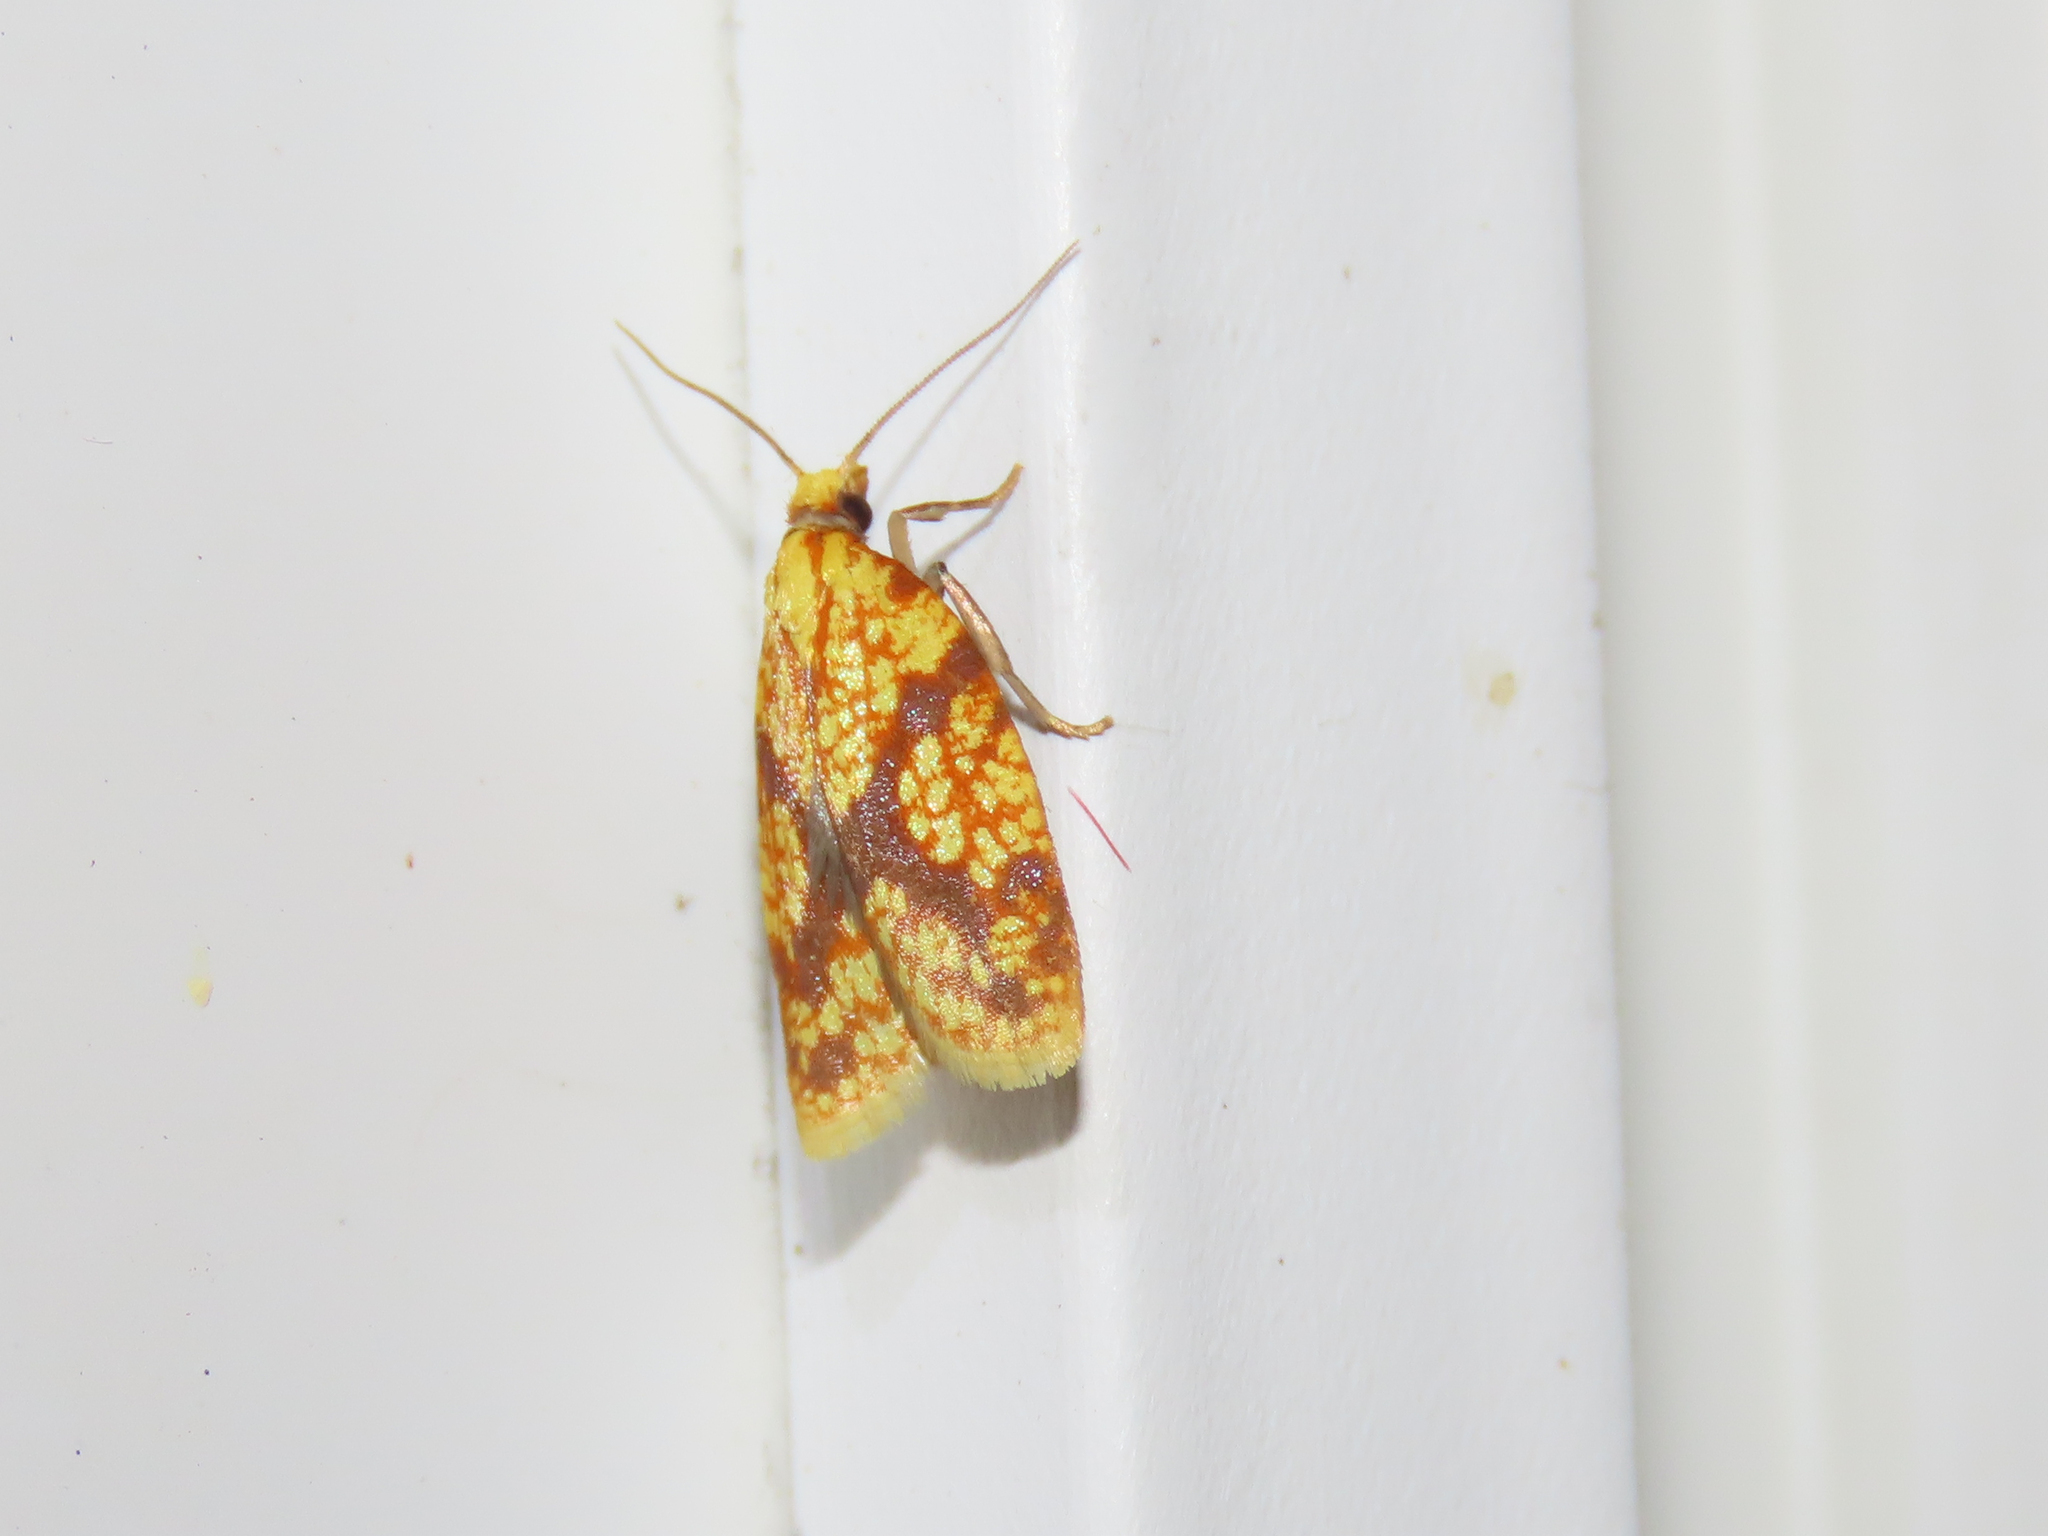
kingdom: Animalia
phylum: Arthropoda
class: Insecta
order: Lepidoptera
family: Tortricidae
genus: Sparganothis
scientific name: Sparganothis sulfureana
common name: Sparganothis fruitworm moth
